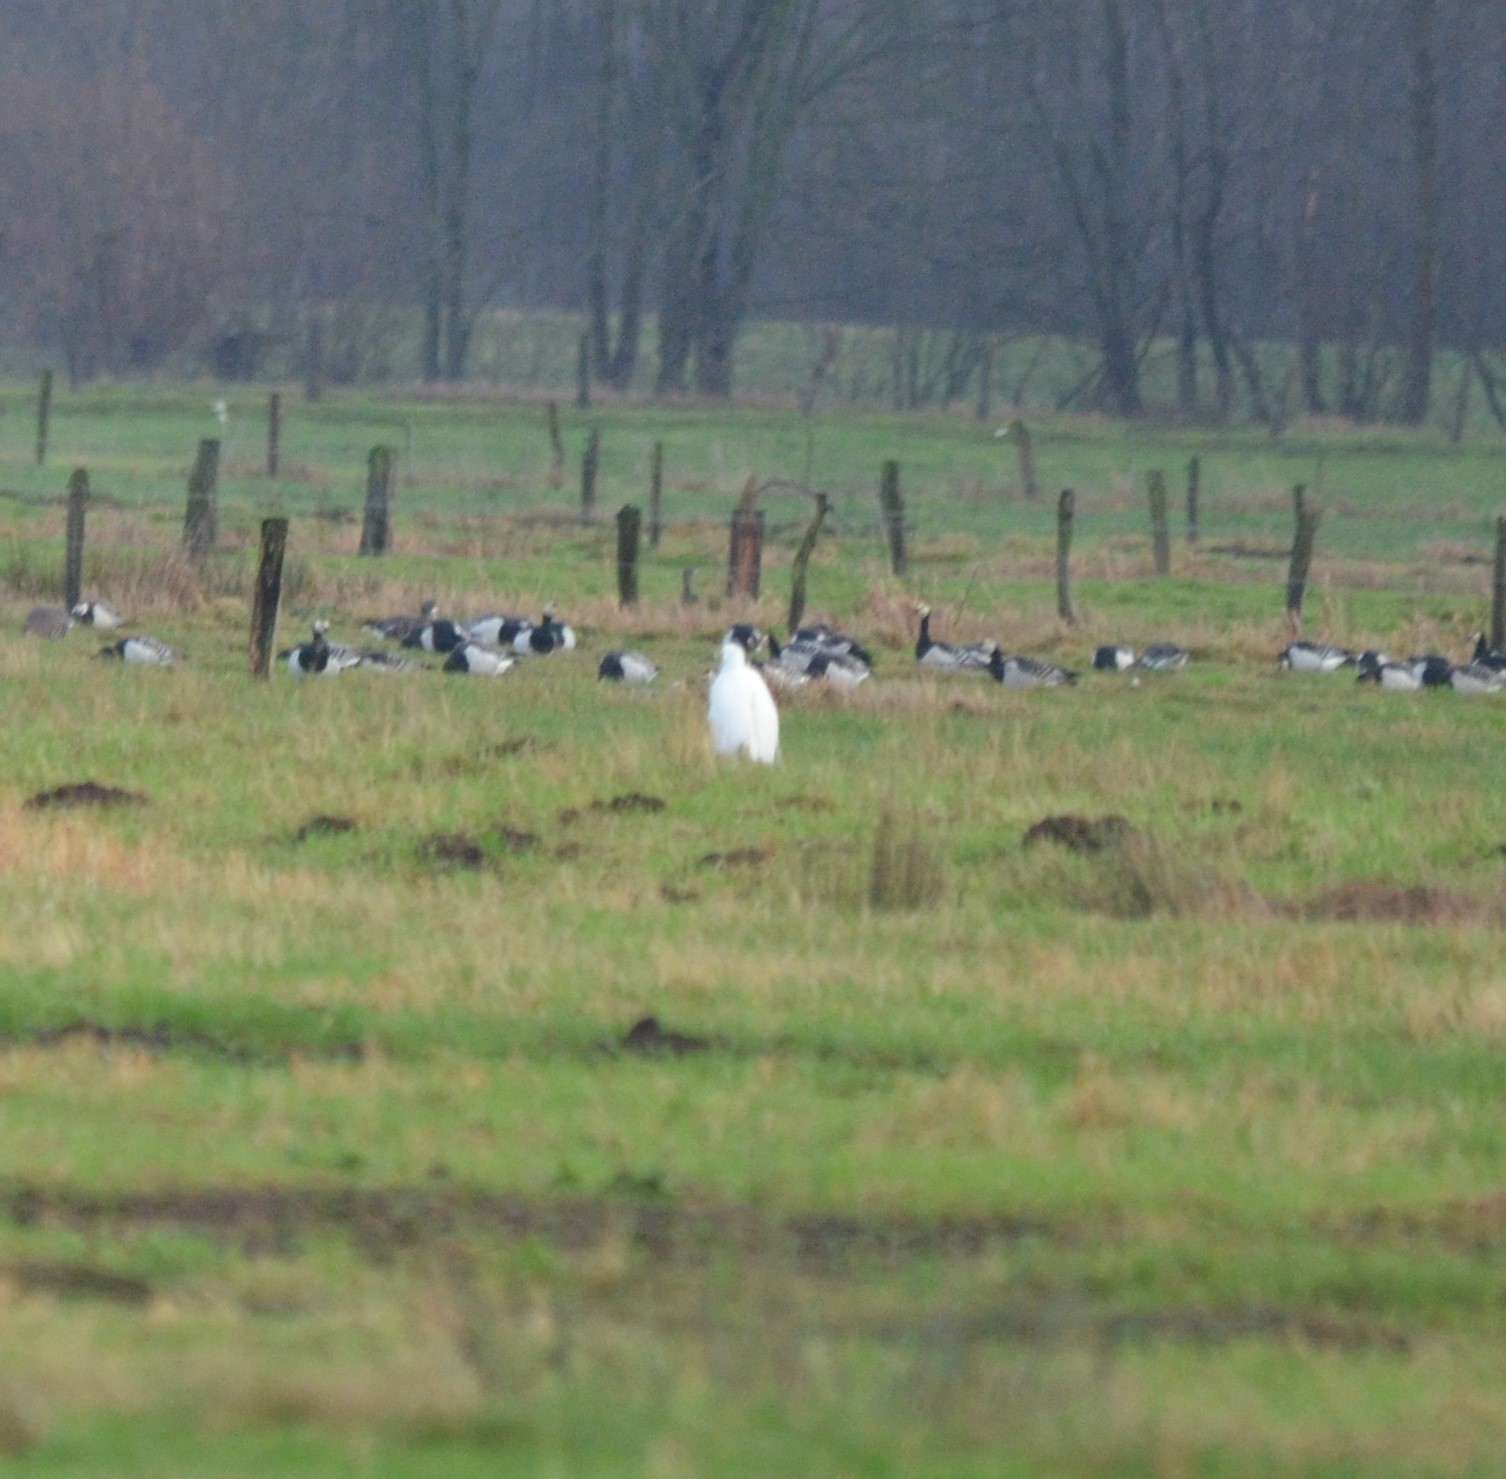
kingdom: Animalia
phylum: Chordata
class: Aves
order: Pelecaniformes
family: Ardeidae
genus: Ardea
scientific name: Ardea alba
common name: Great egret
